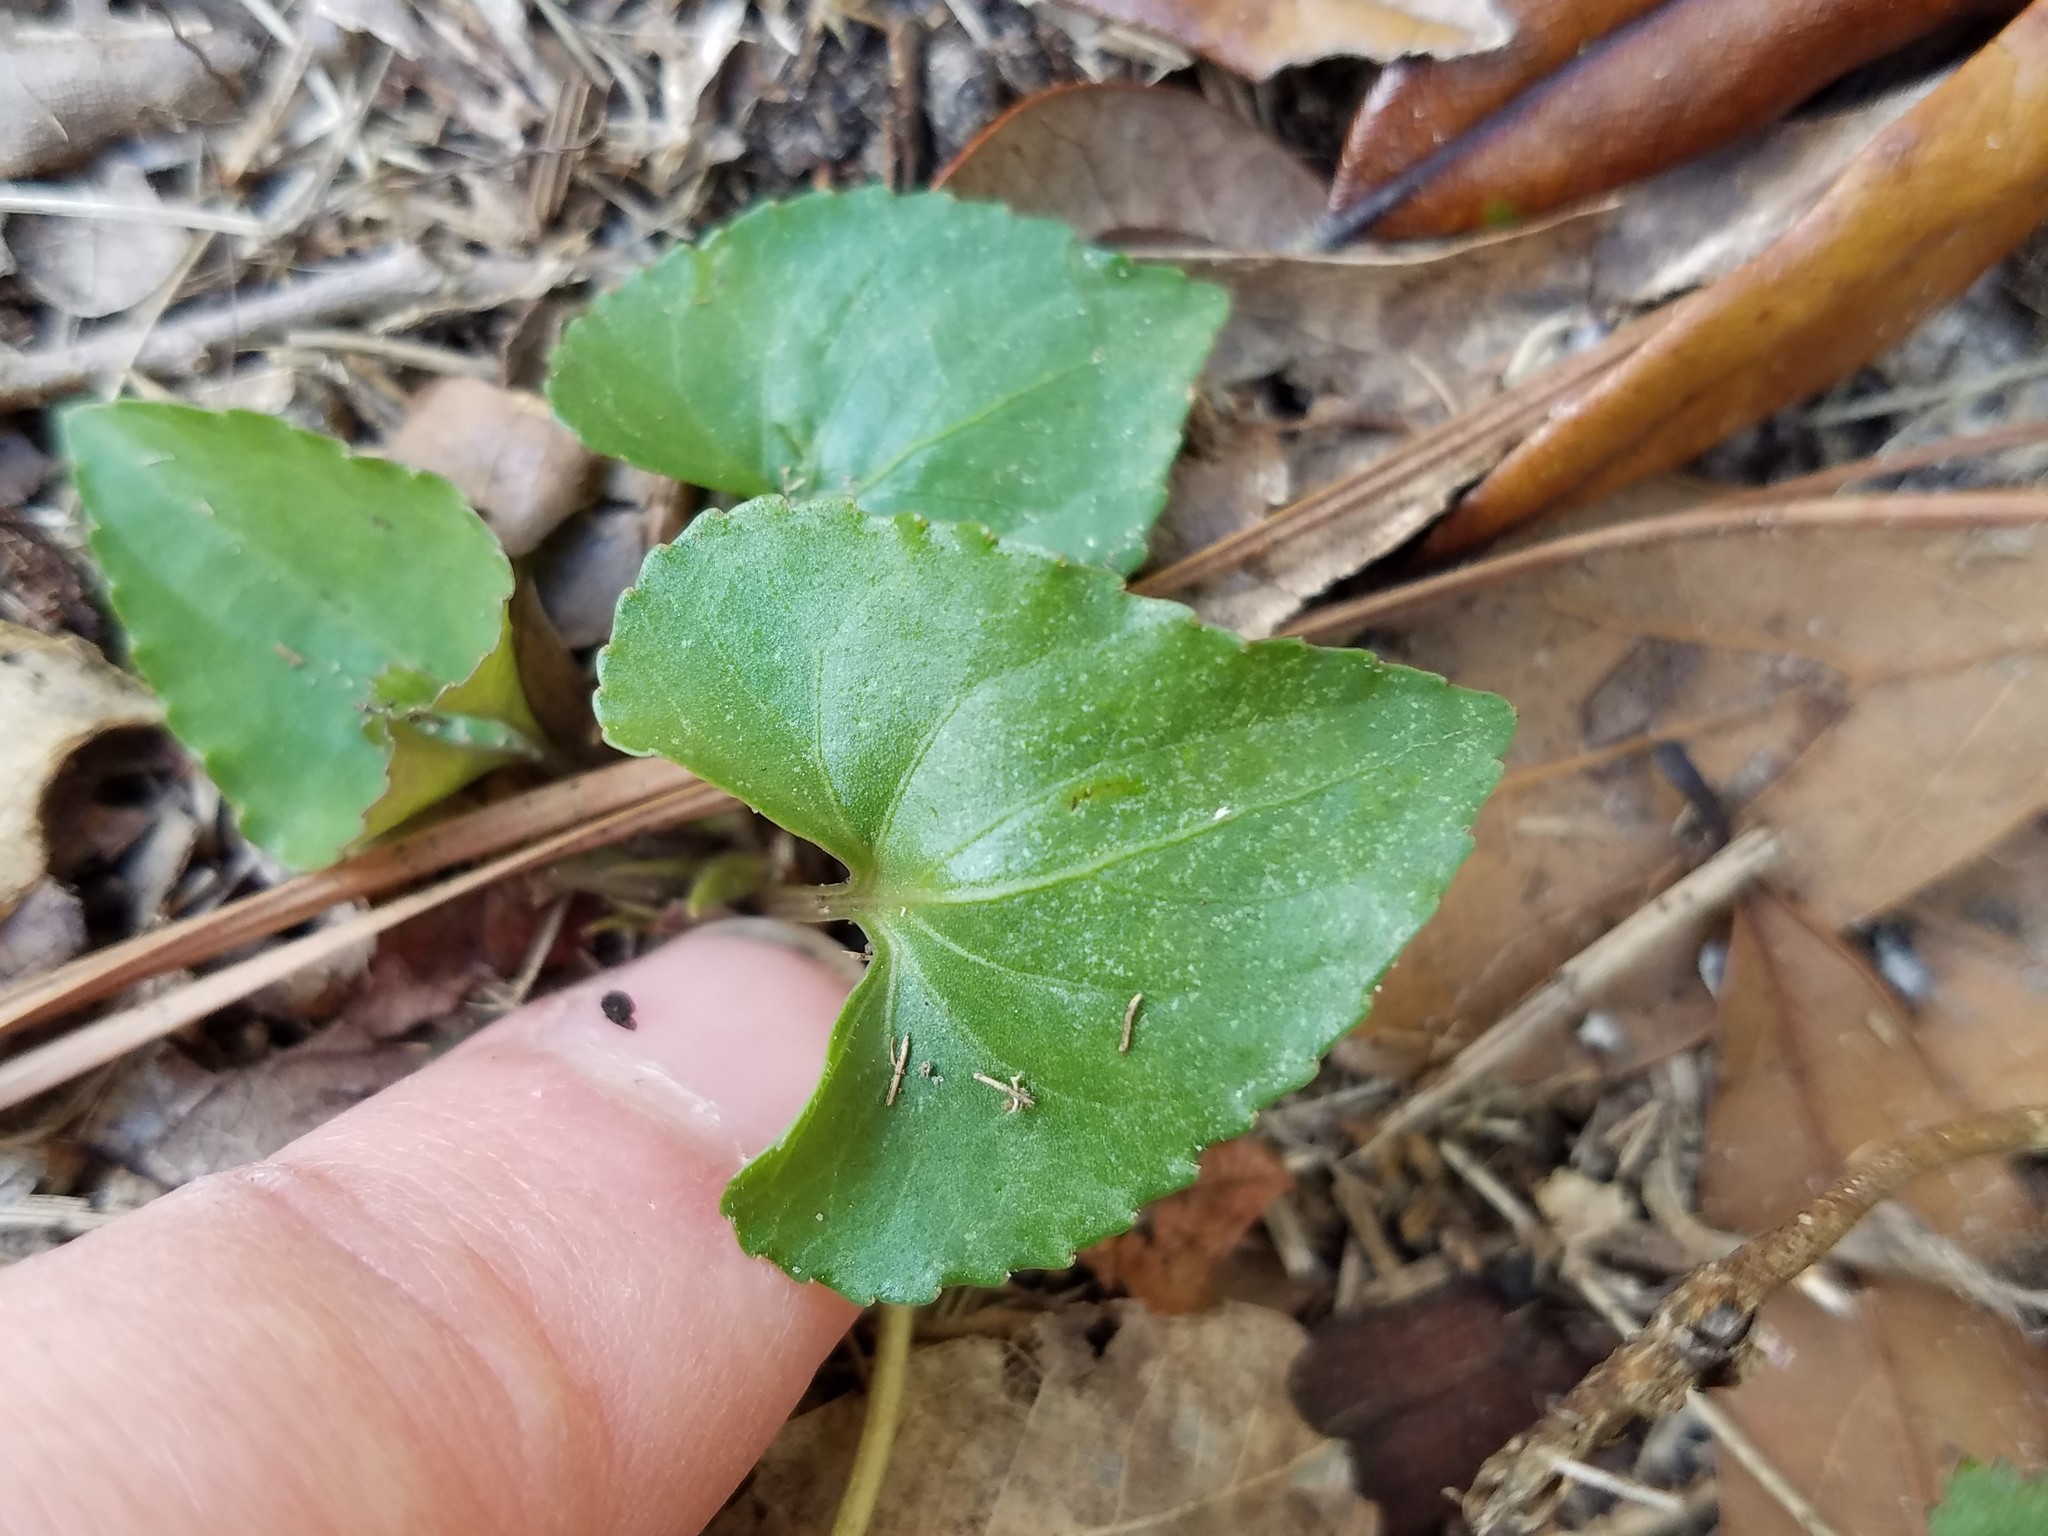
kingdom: Plantae
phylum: Tracheophyta
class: Magnoliopsida
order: Malpighiales
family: Violaceae
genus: Viola
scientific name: Viola sororia
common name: Dooryard violet
